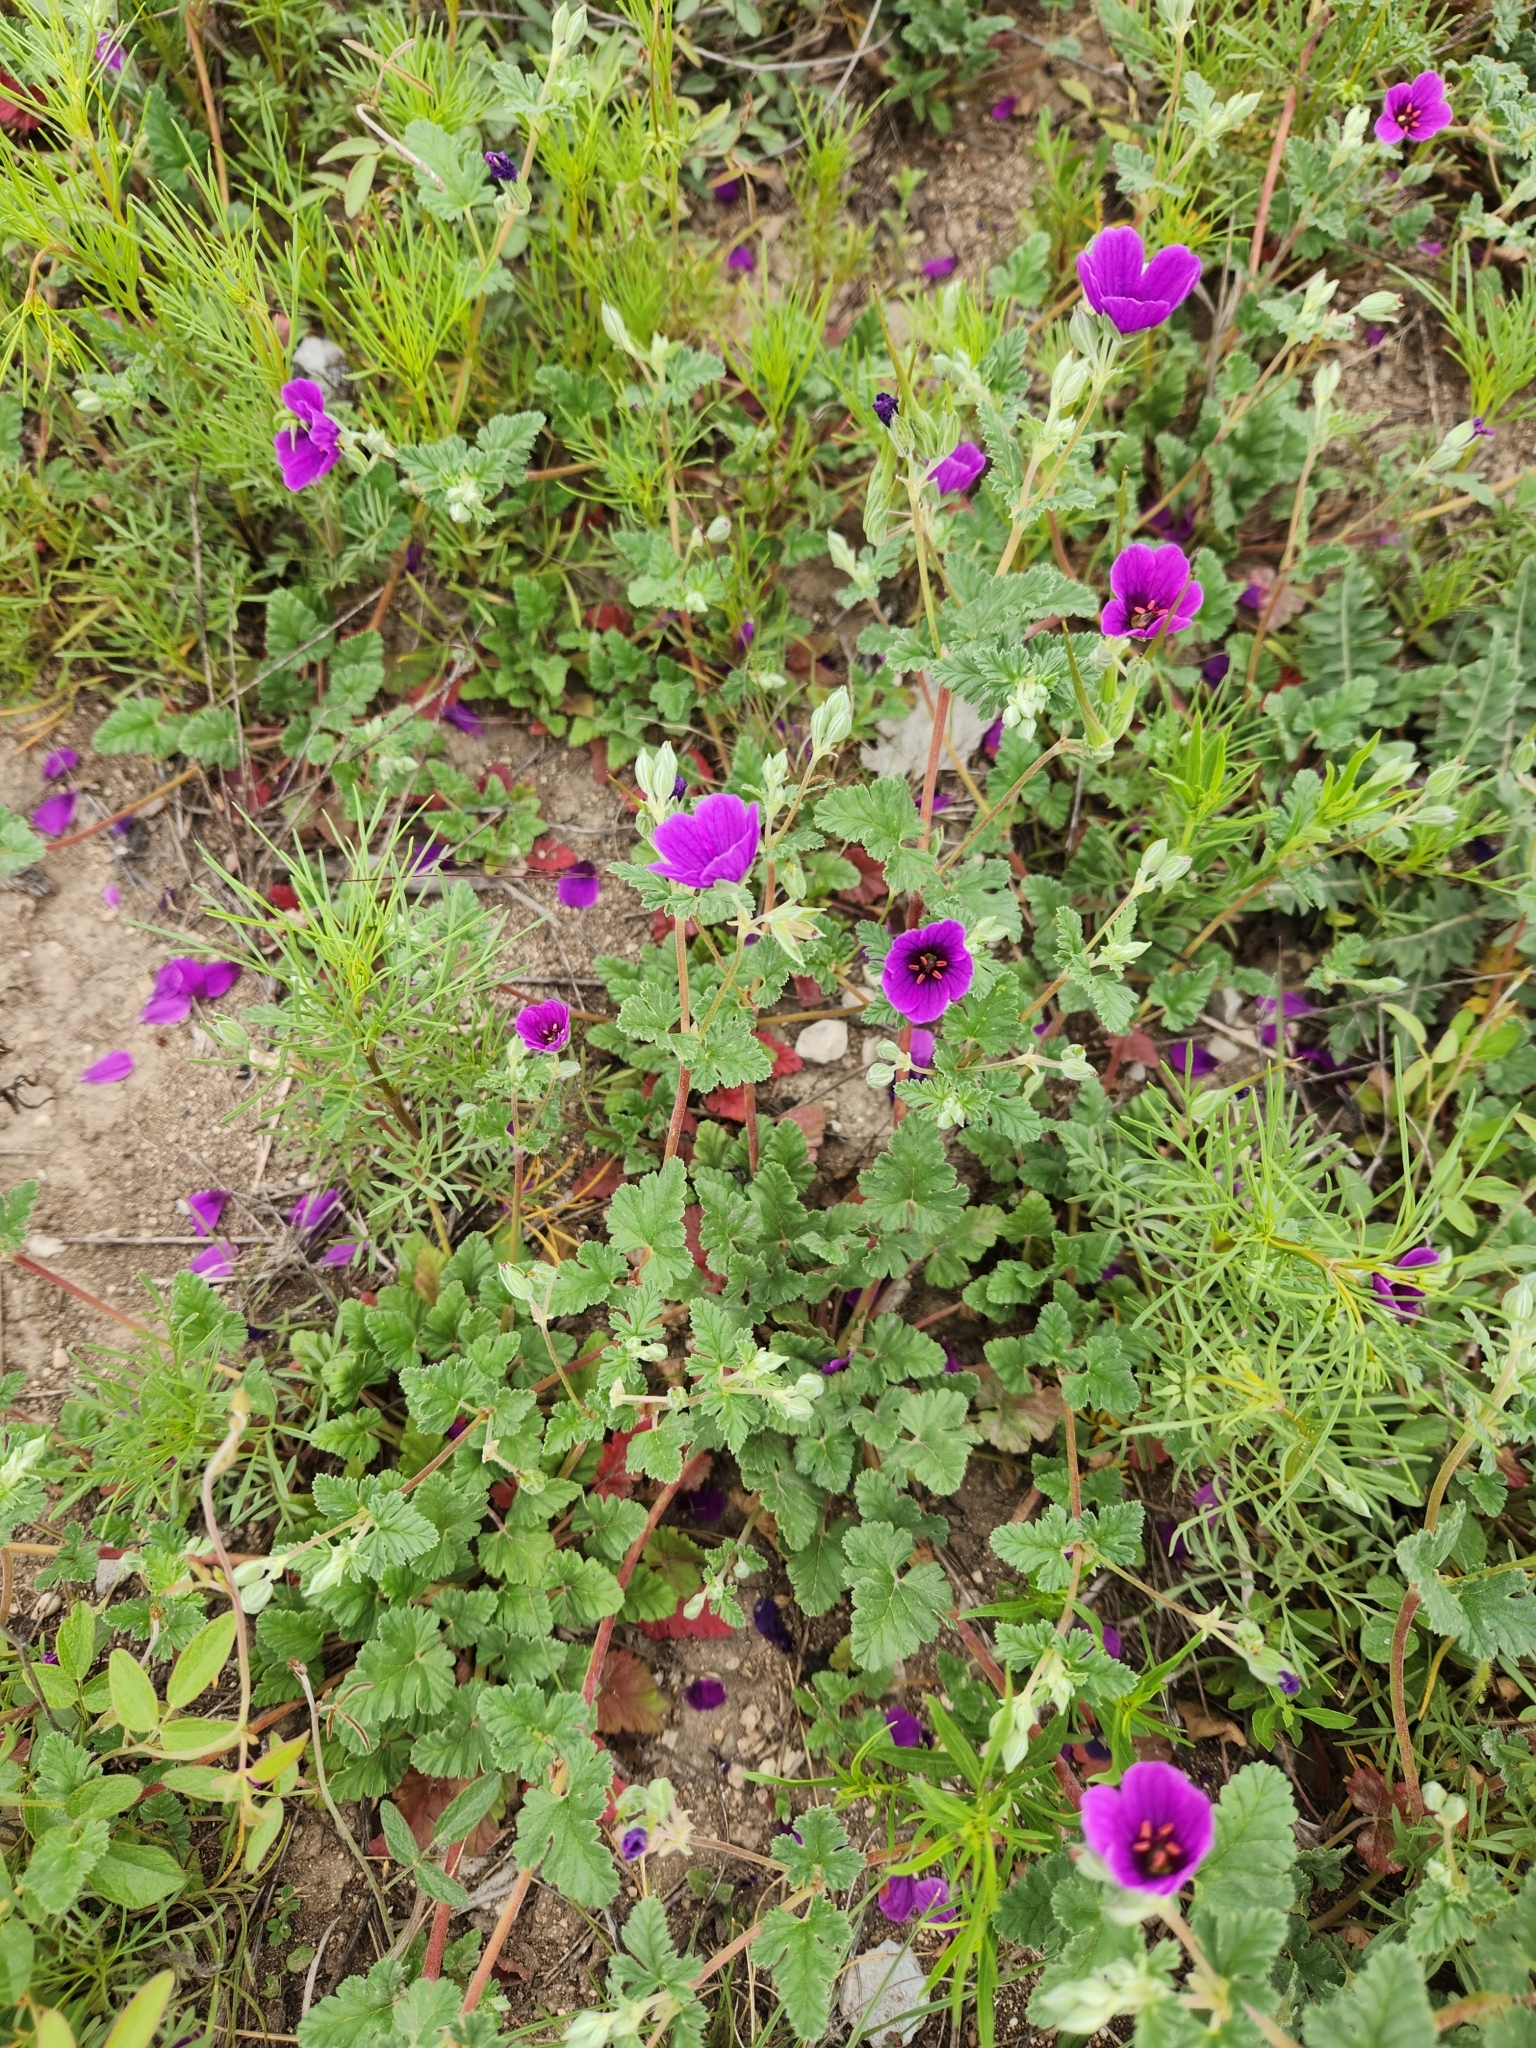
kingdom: Plantae
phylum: Tracheophyta
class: Magnoliopsida
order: Geraniales
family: Geraniaceae
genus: Erodium
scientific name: Erodium texanum
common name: Texas stork's-bill
